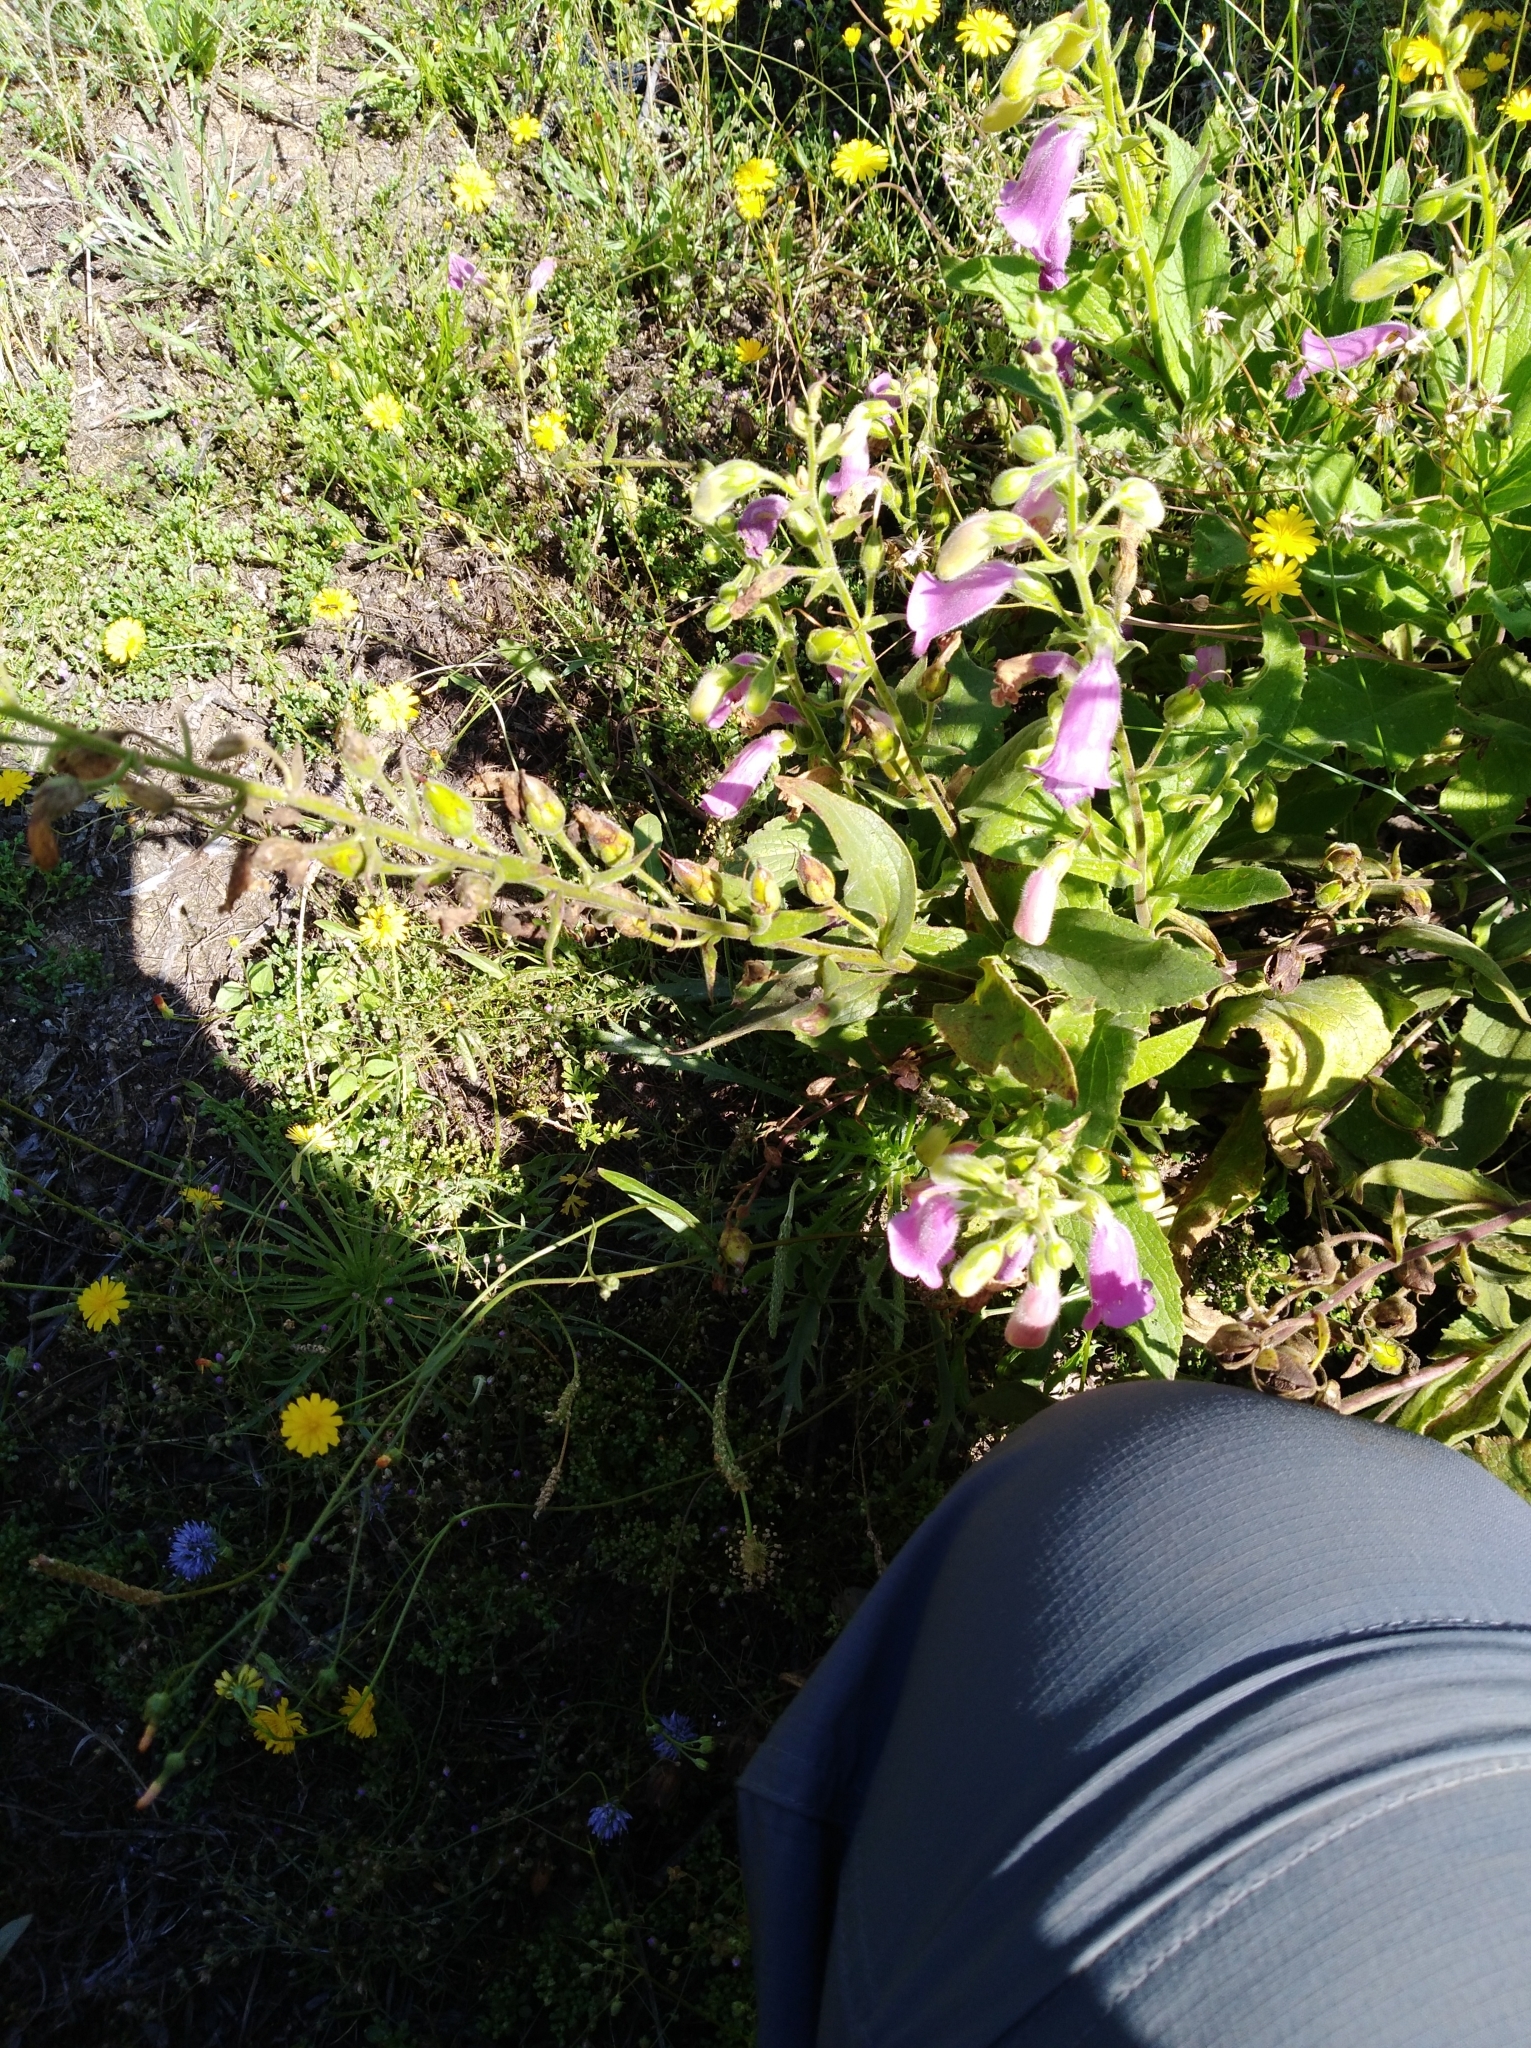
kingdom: Plantae
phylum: Tracheophyta
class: Magnoliopsida
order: Lamiales
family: Plantaginaceae
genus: Digitalis
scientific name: Digitalis thapsi
